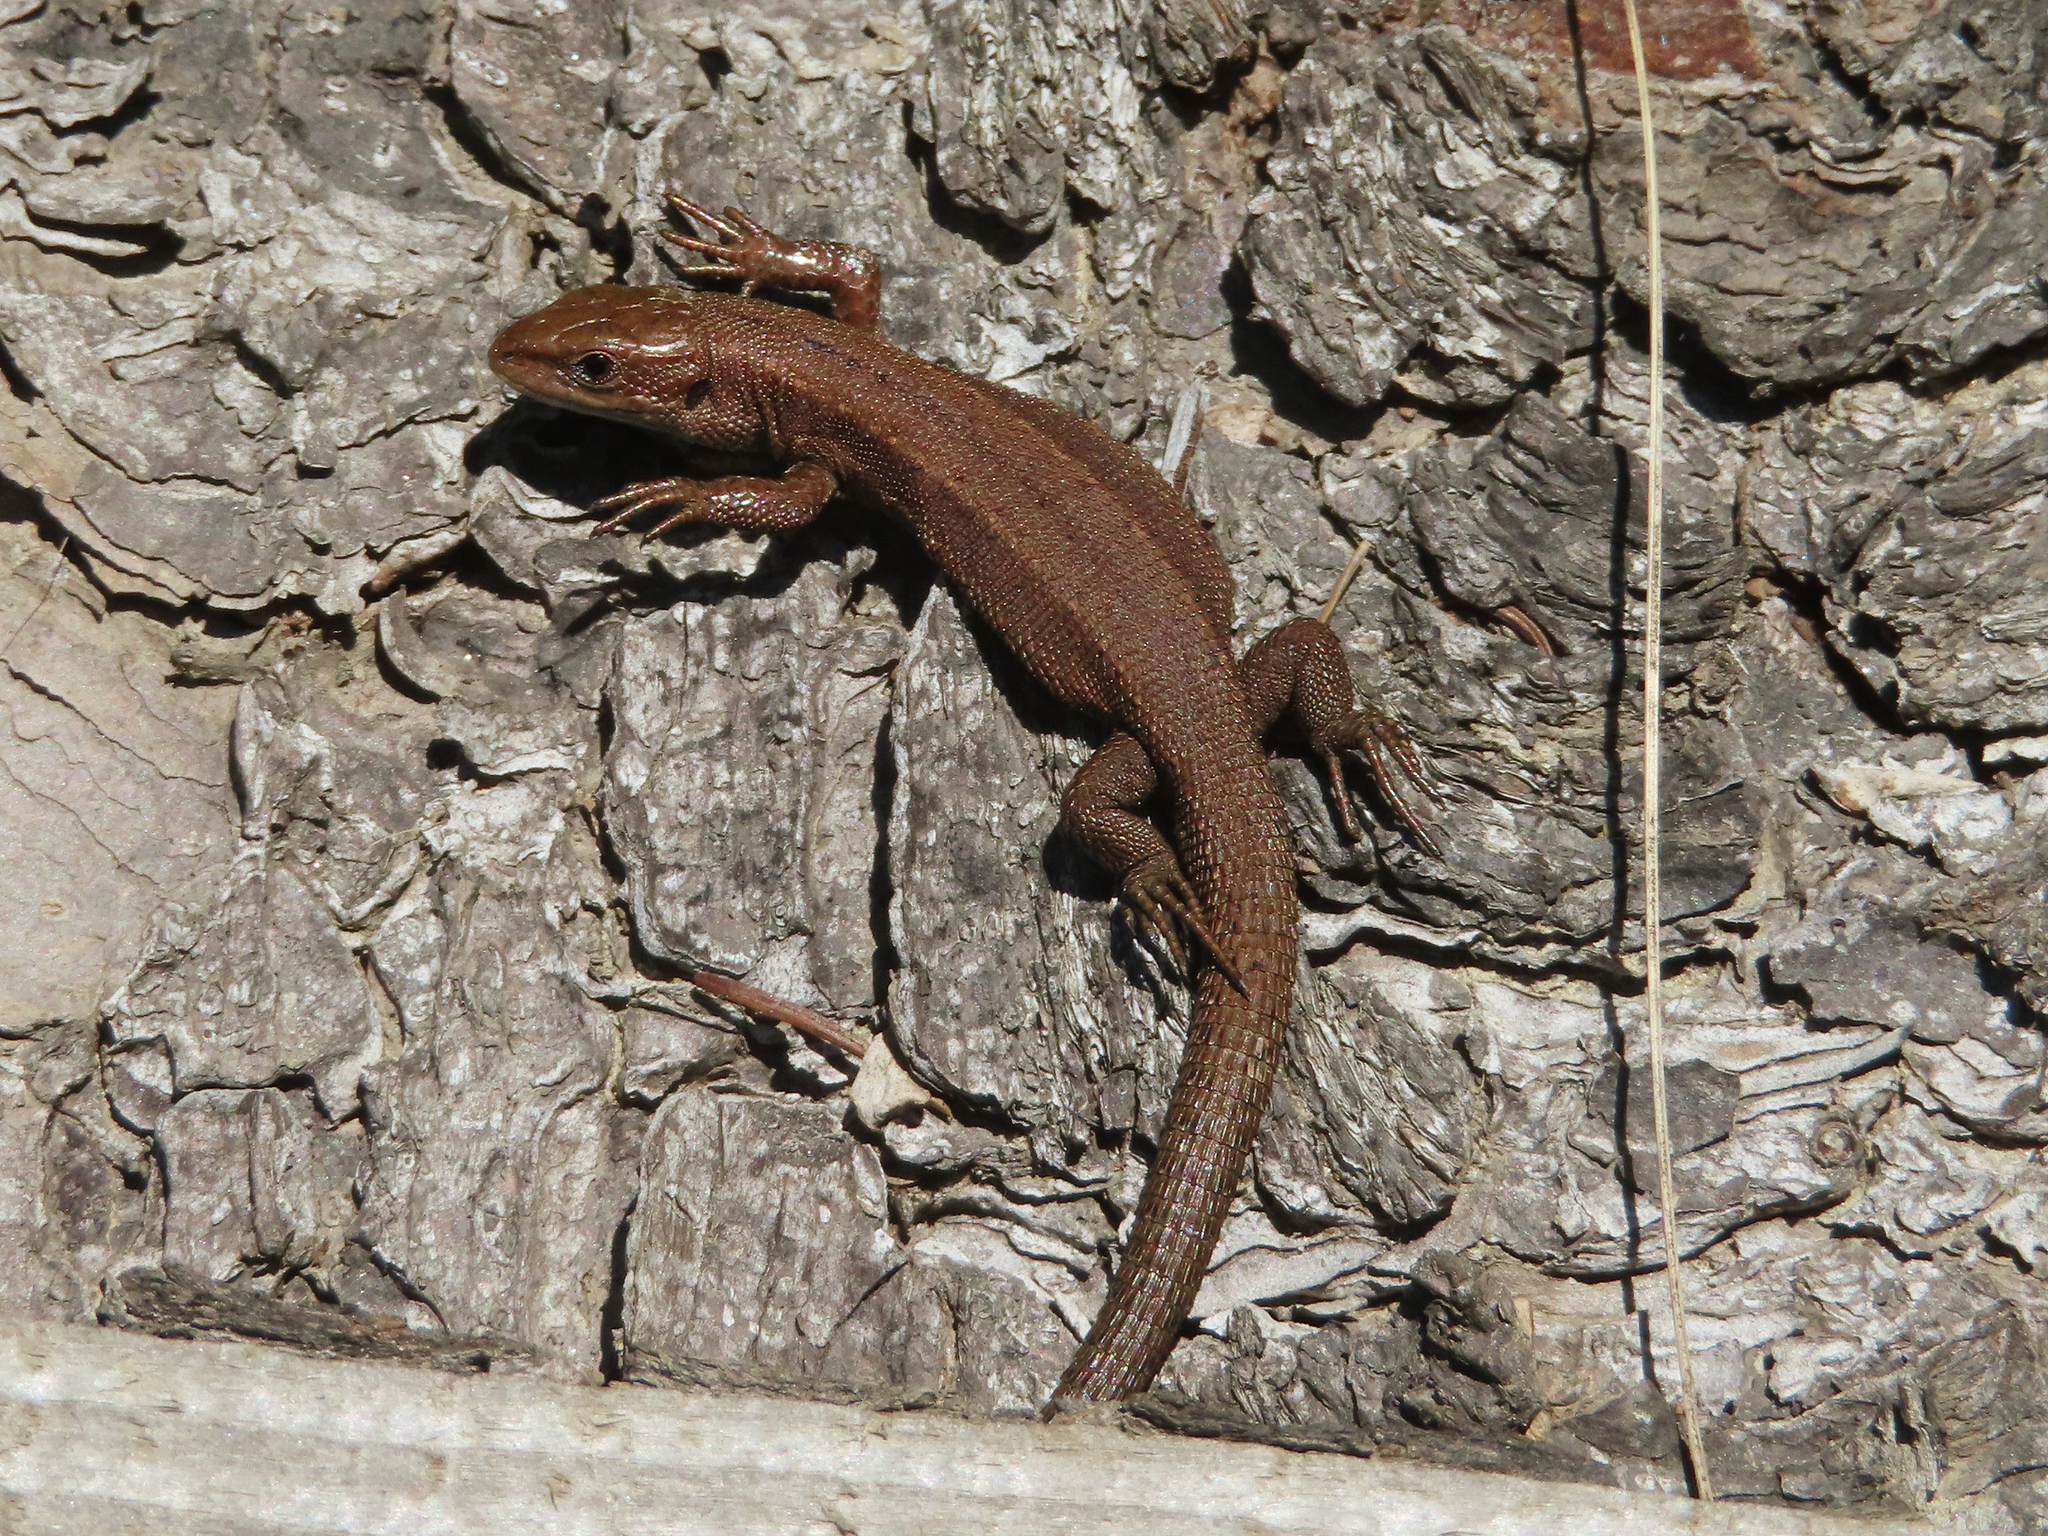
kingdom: Animalia
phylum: Chordata
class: Squamata
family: Lacertidae
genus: Zootoca
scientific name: Zootoca vivipara
